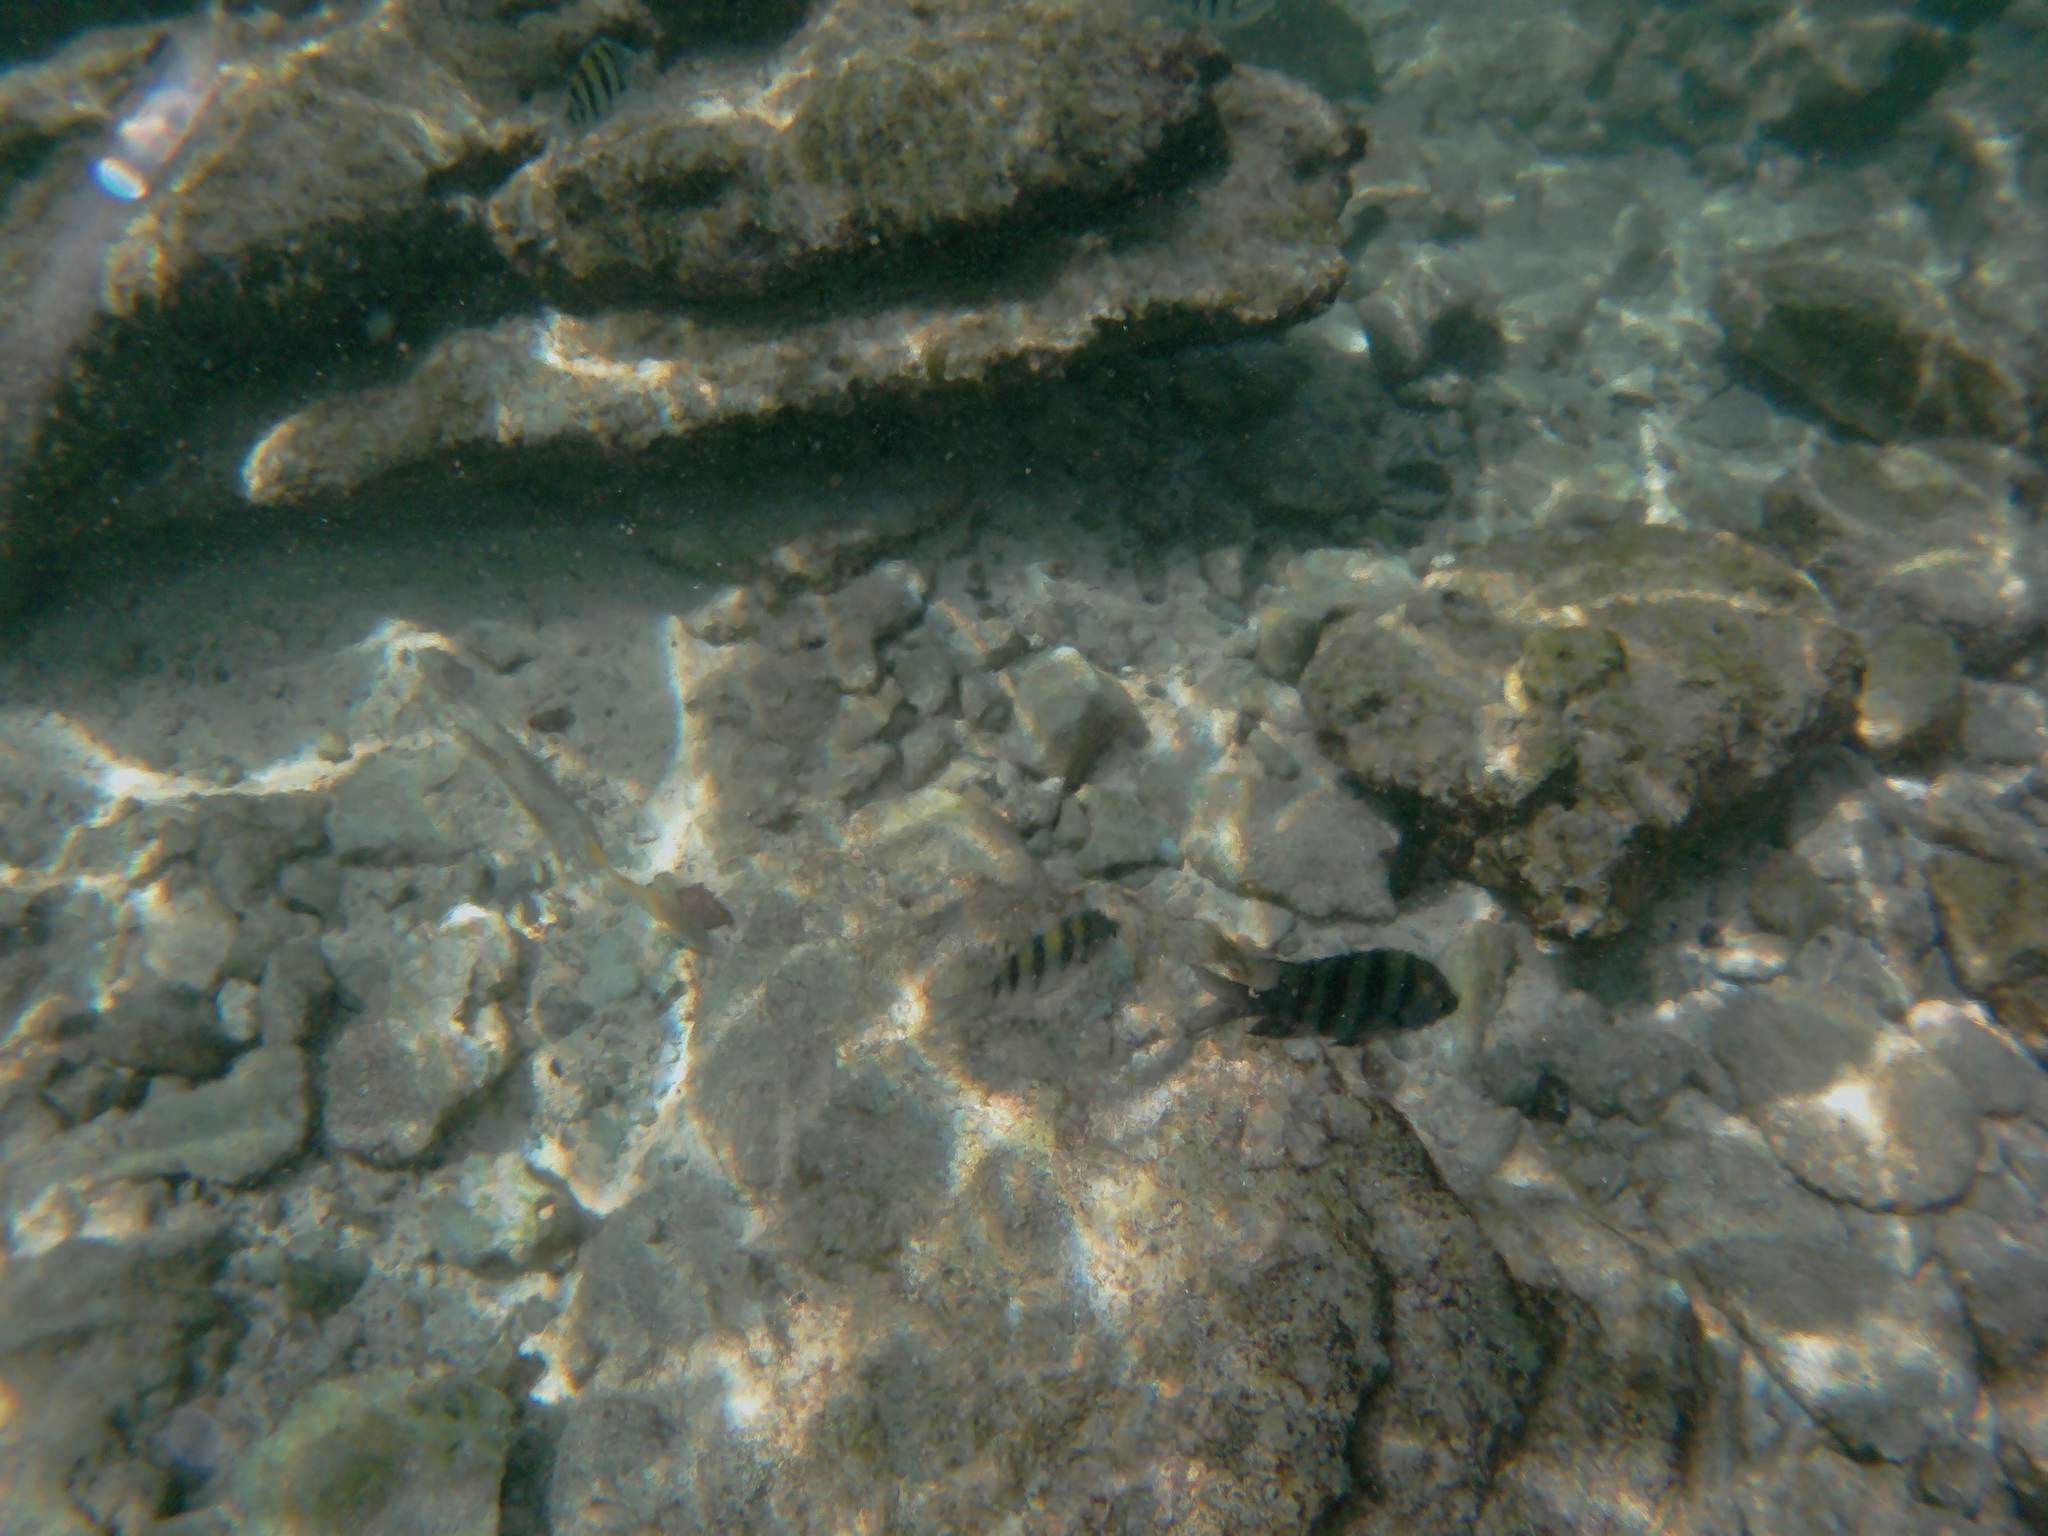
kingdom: Animalia
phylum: Chordata
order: Perciformes
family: Pomacentridae
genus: Abudefduf
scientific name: Abudefduf saxatilis
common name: Sergeant major
